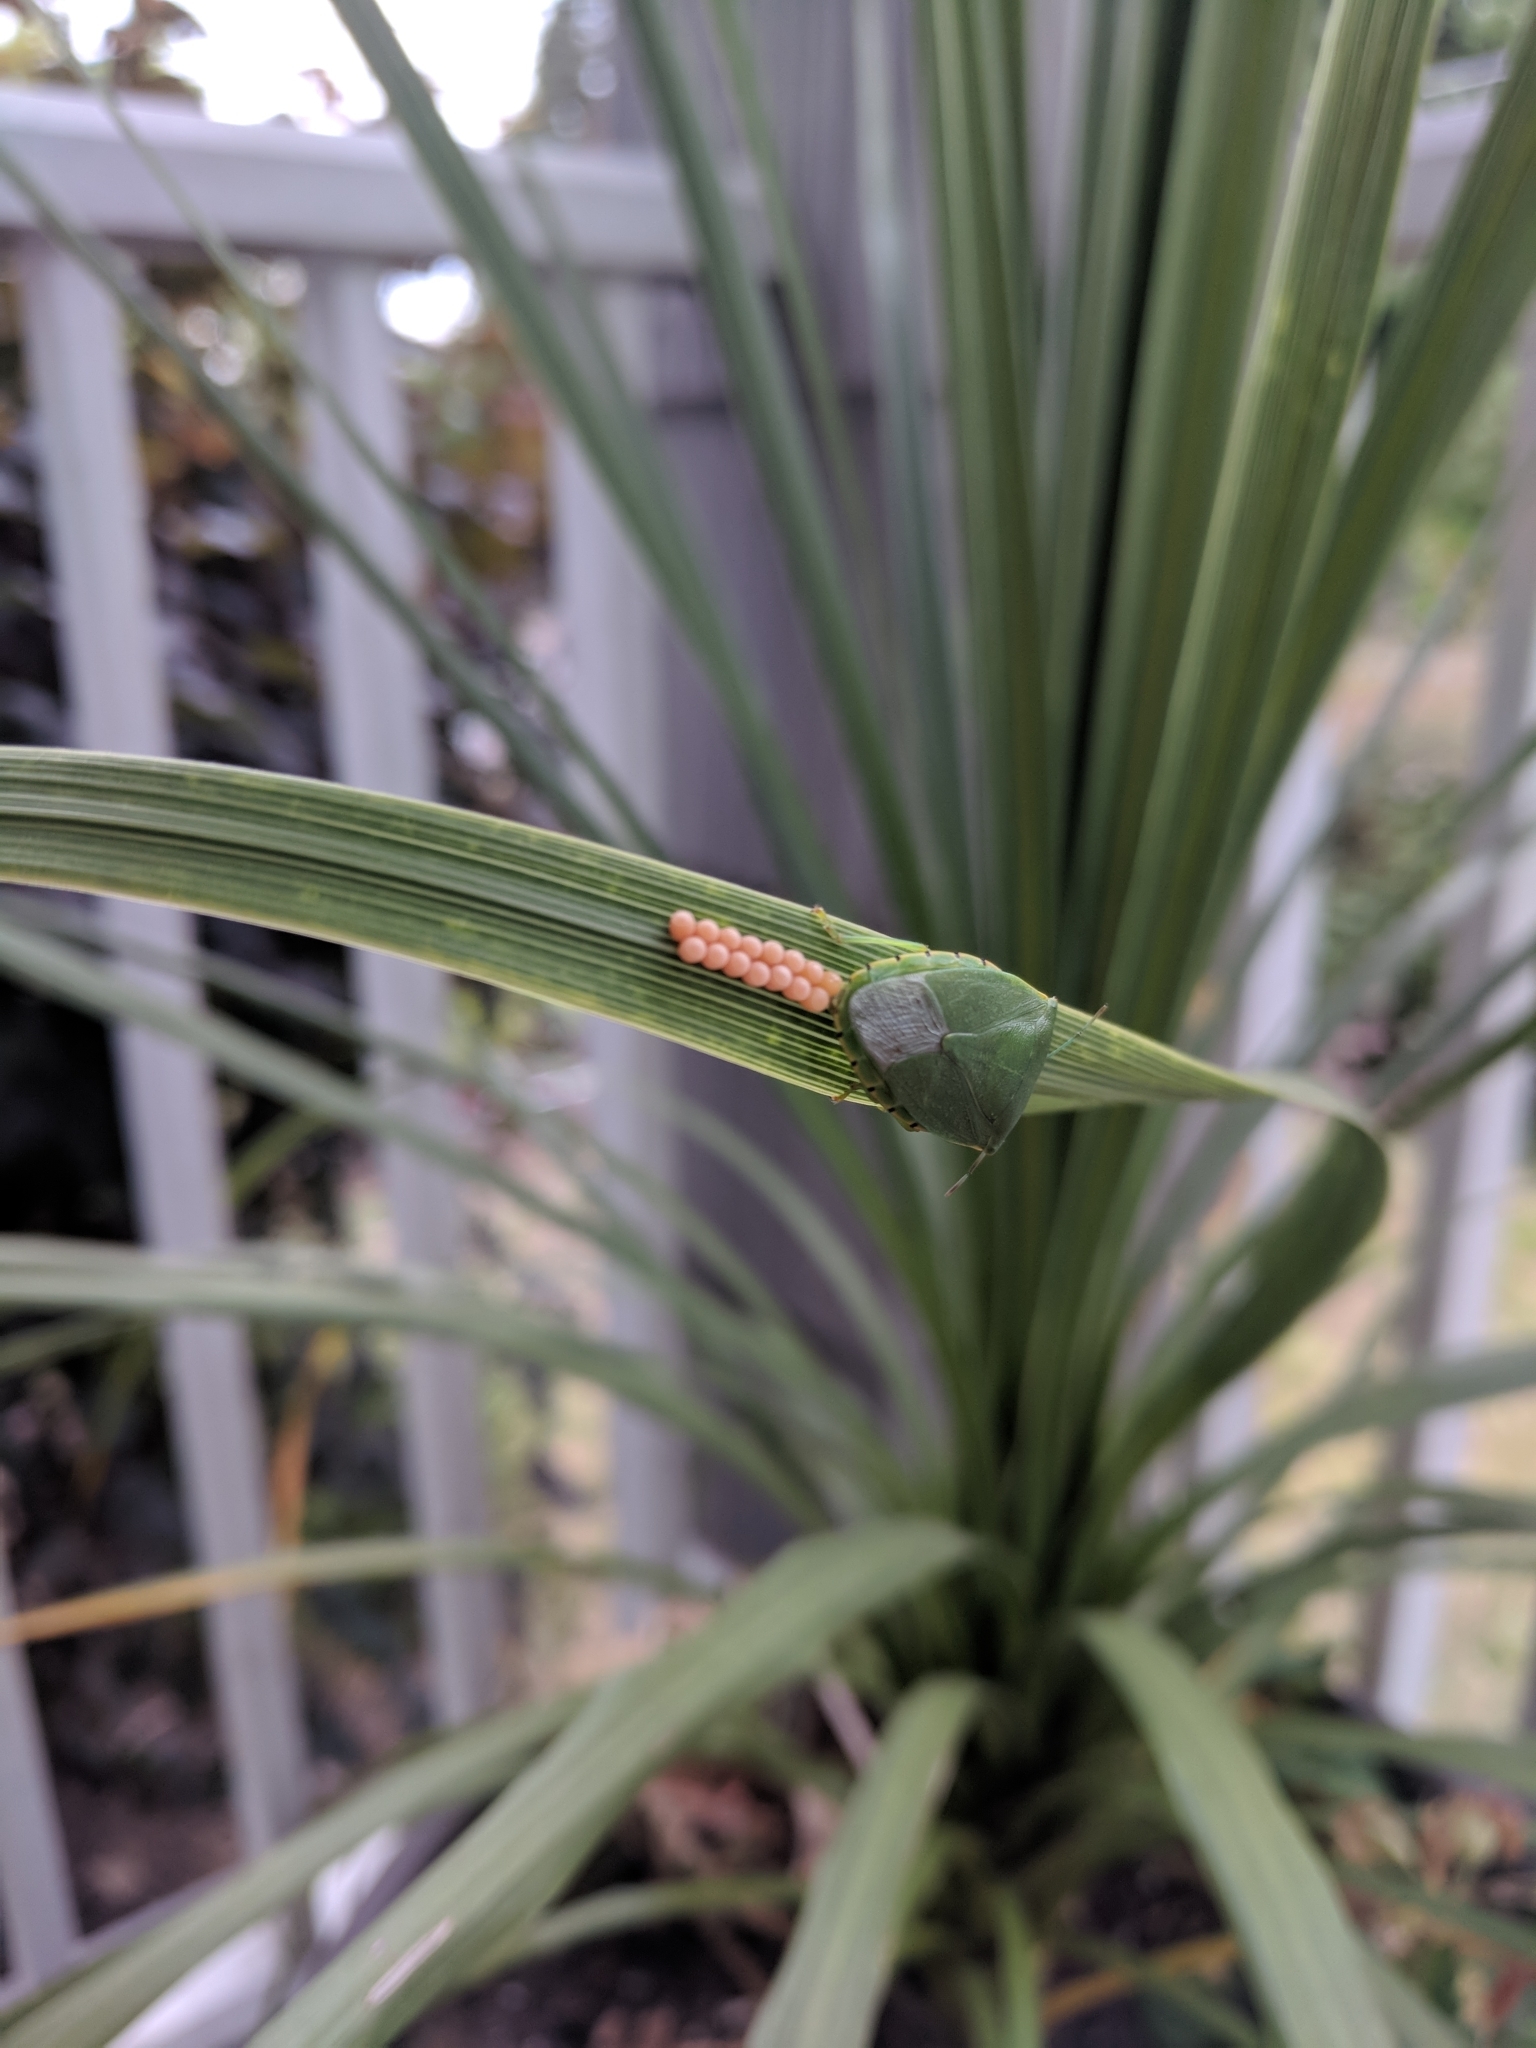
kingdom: Animalia
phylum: Arthropoda
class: Insecta
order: Hemiptera
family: Pentatomidae
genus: Chinavia
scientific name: Chinavia hilaris
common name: Green stink bug
